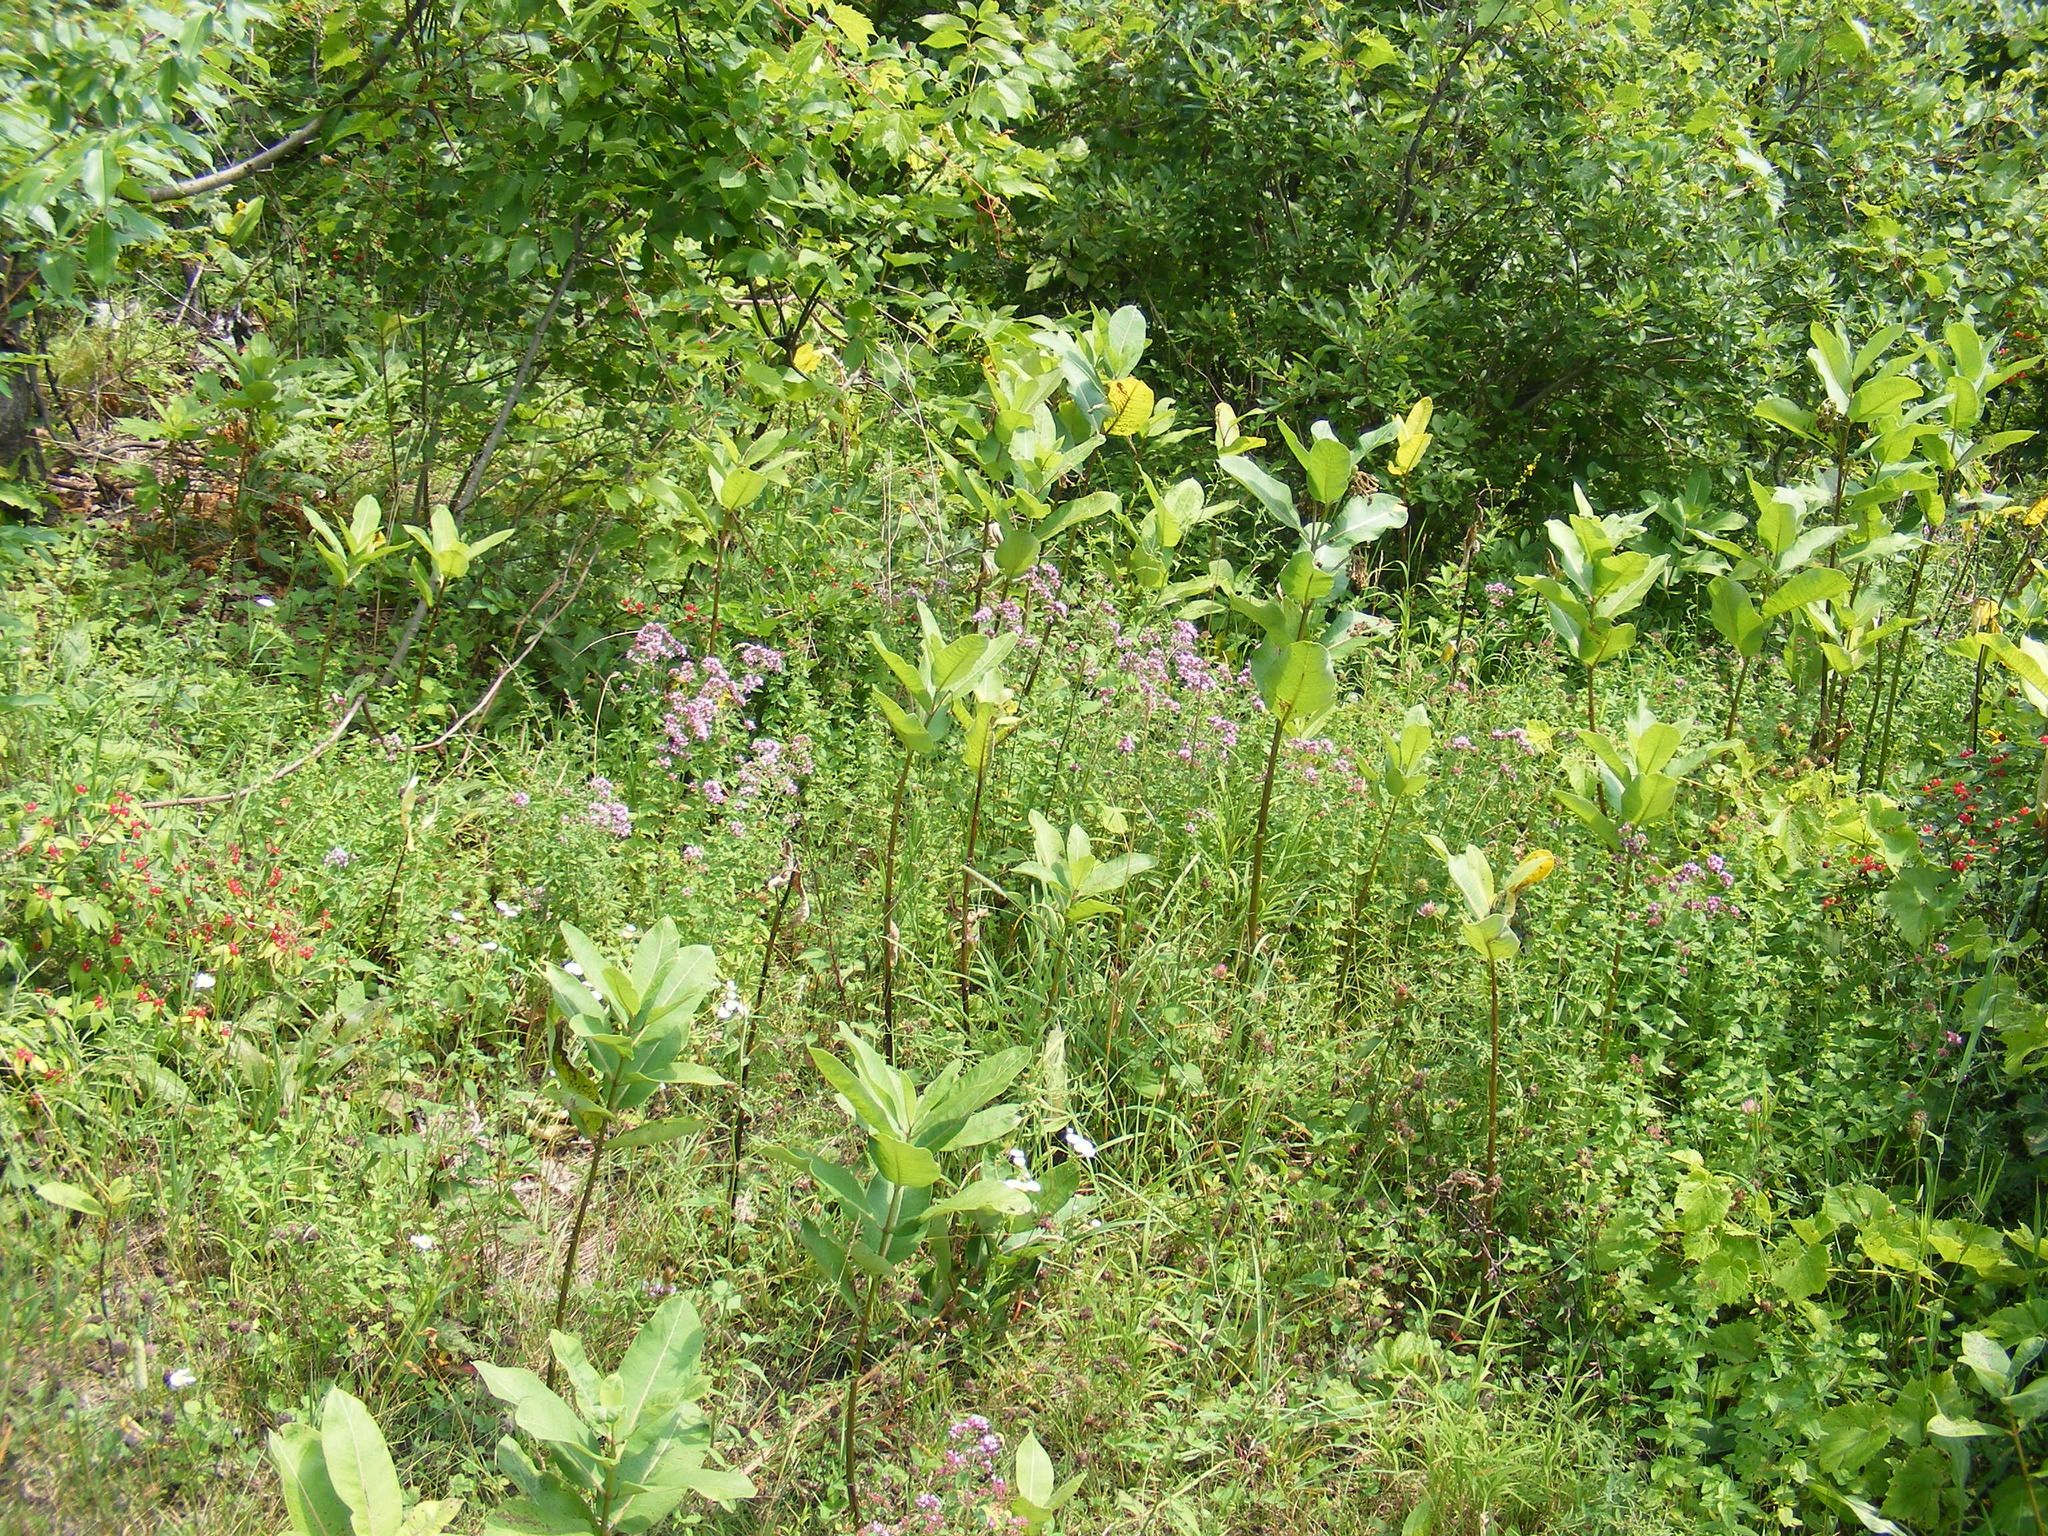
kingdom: Plantae
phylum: Tracheophyta
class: Magnoliopsida
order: Gentianales
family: Apocynaceae
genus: Asclepias
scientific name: Asclepias syriaca
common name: Common milkweed
